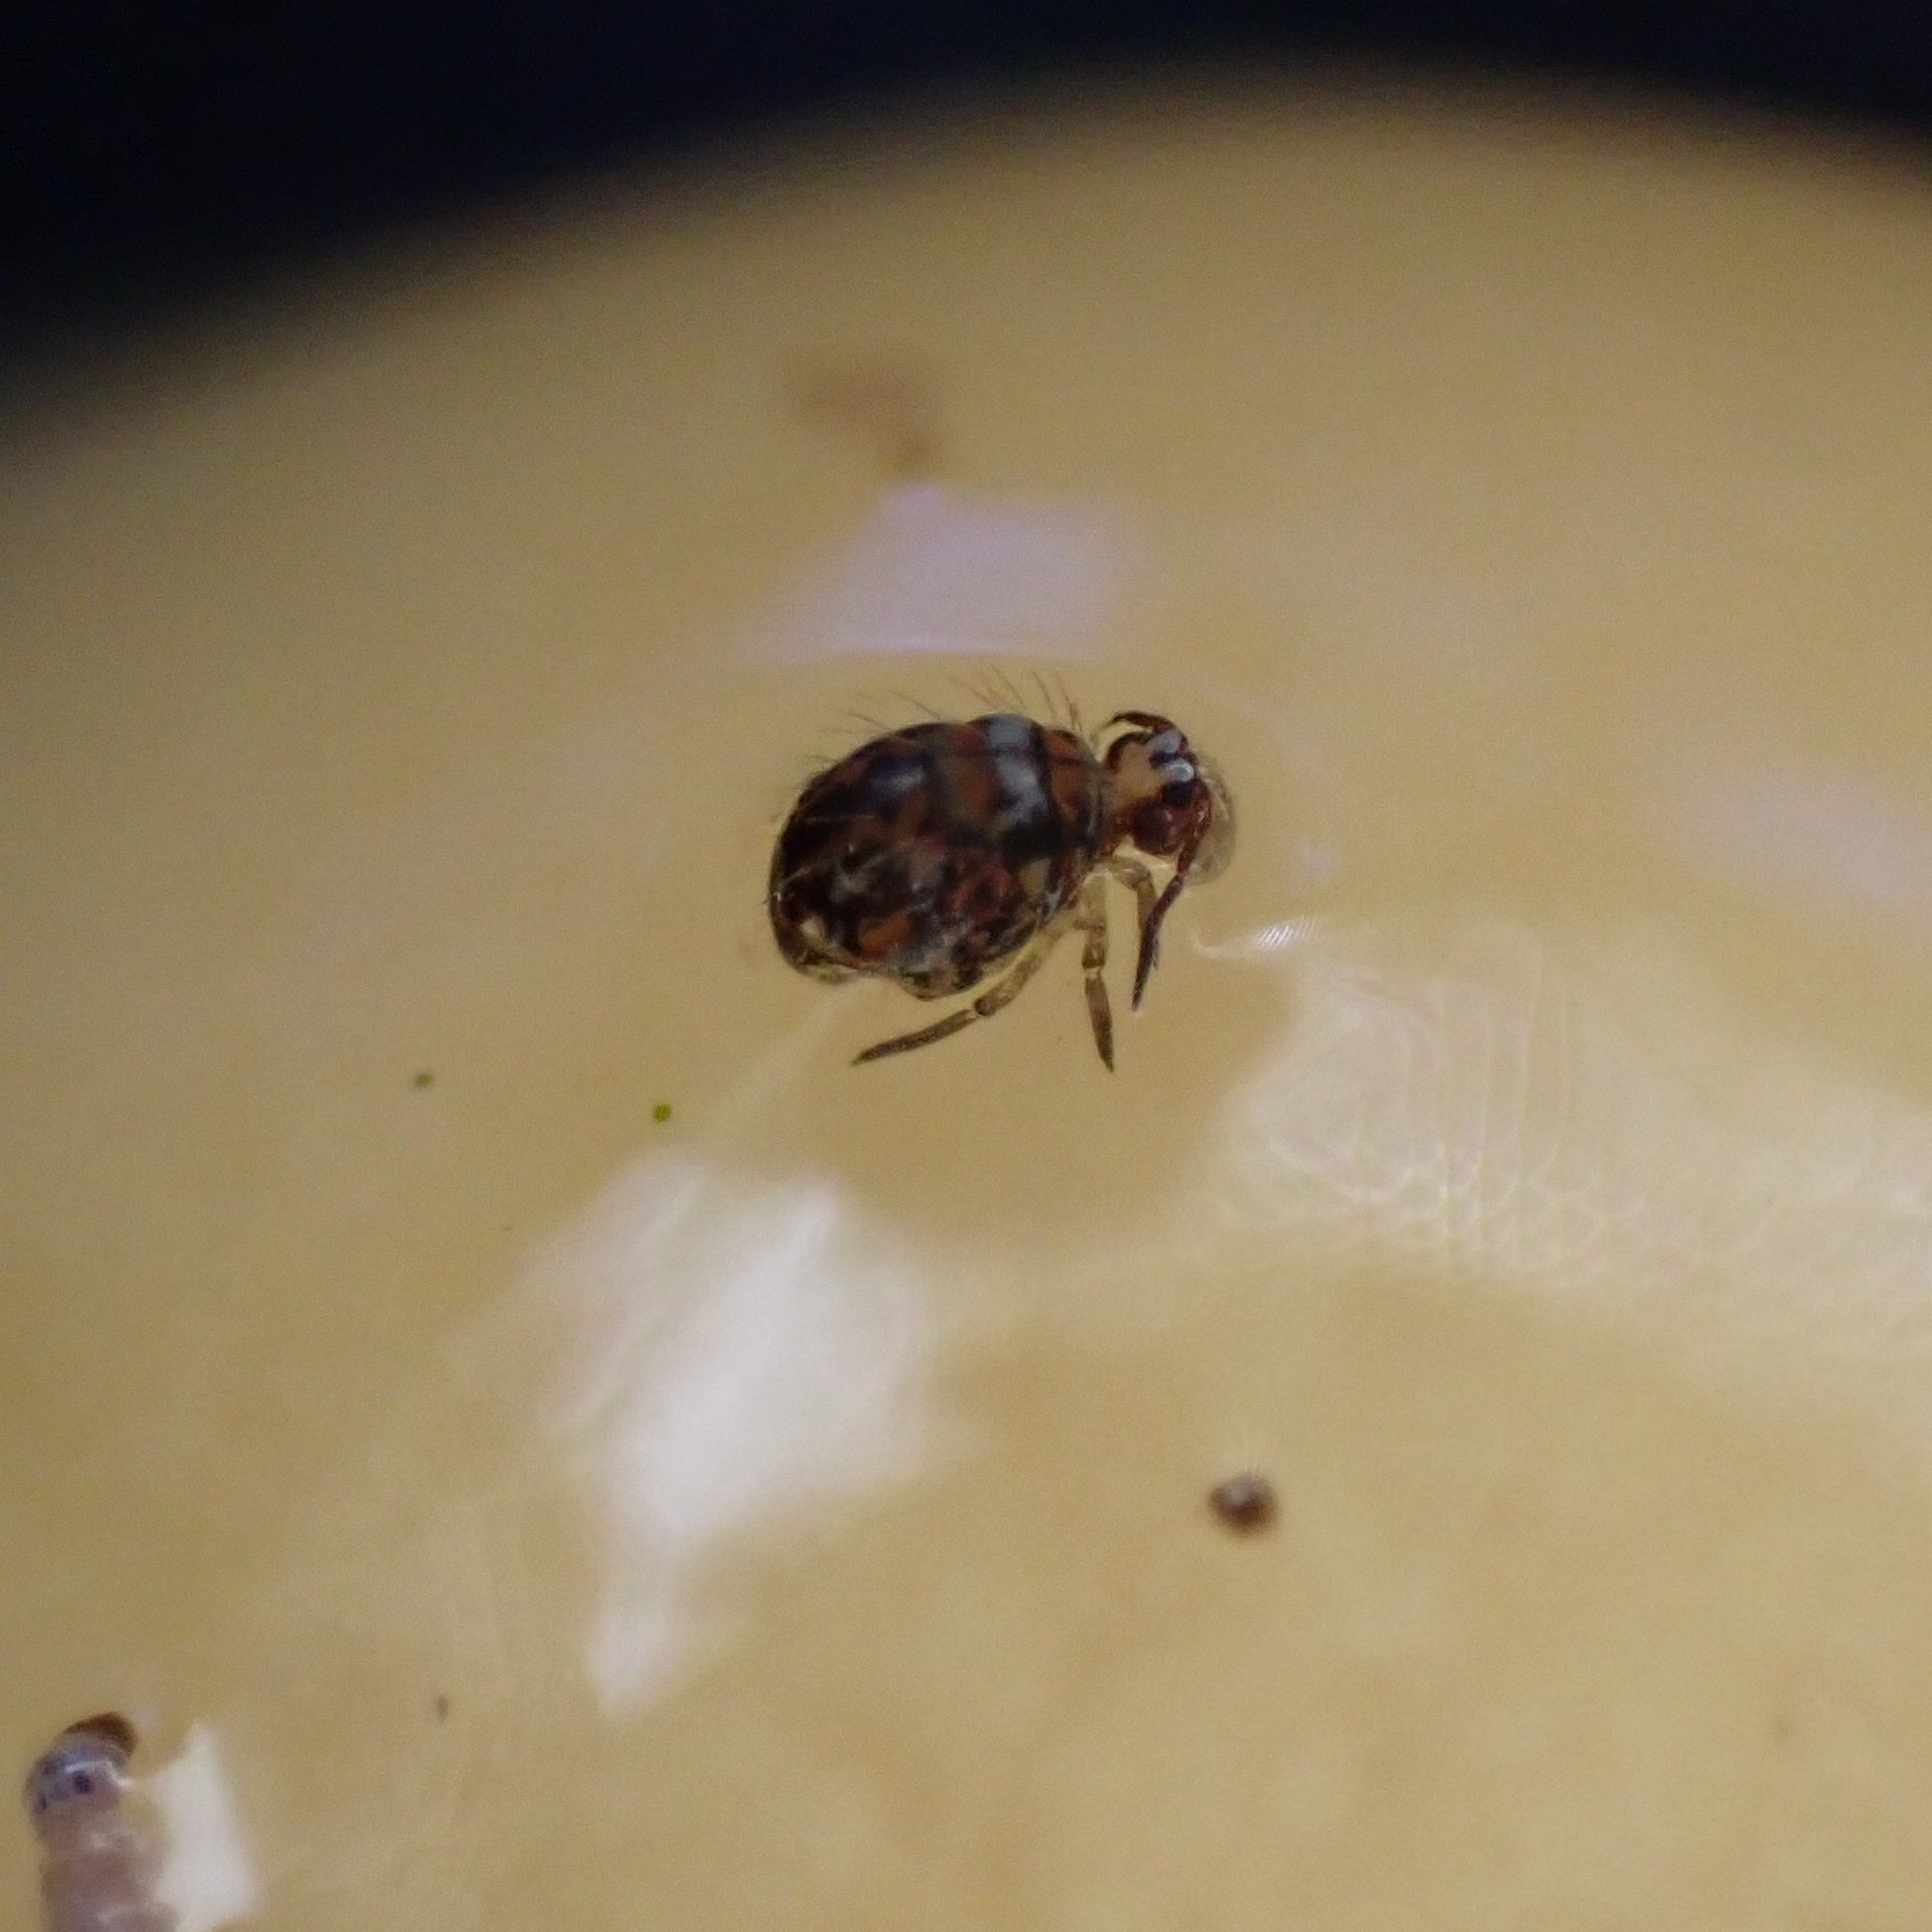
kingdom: Animalia
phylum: Arthropoda
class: Collembola
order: Symphypleona
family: Katiannidae
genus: Vesicephalus
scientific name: Vesicephalus occidentalis
